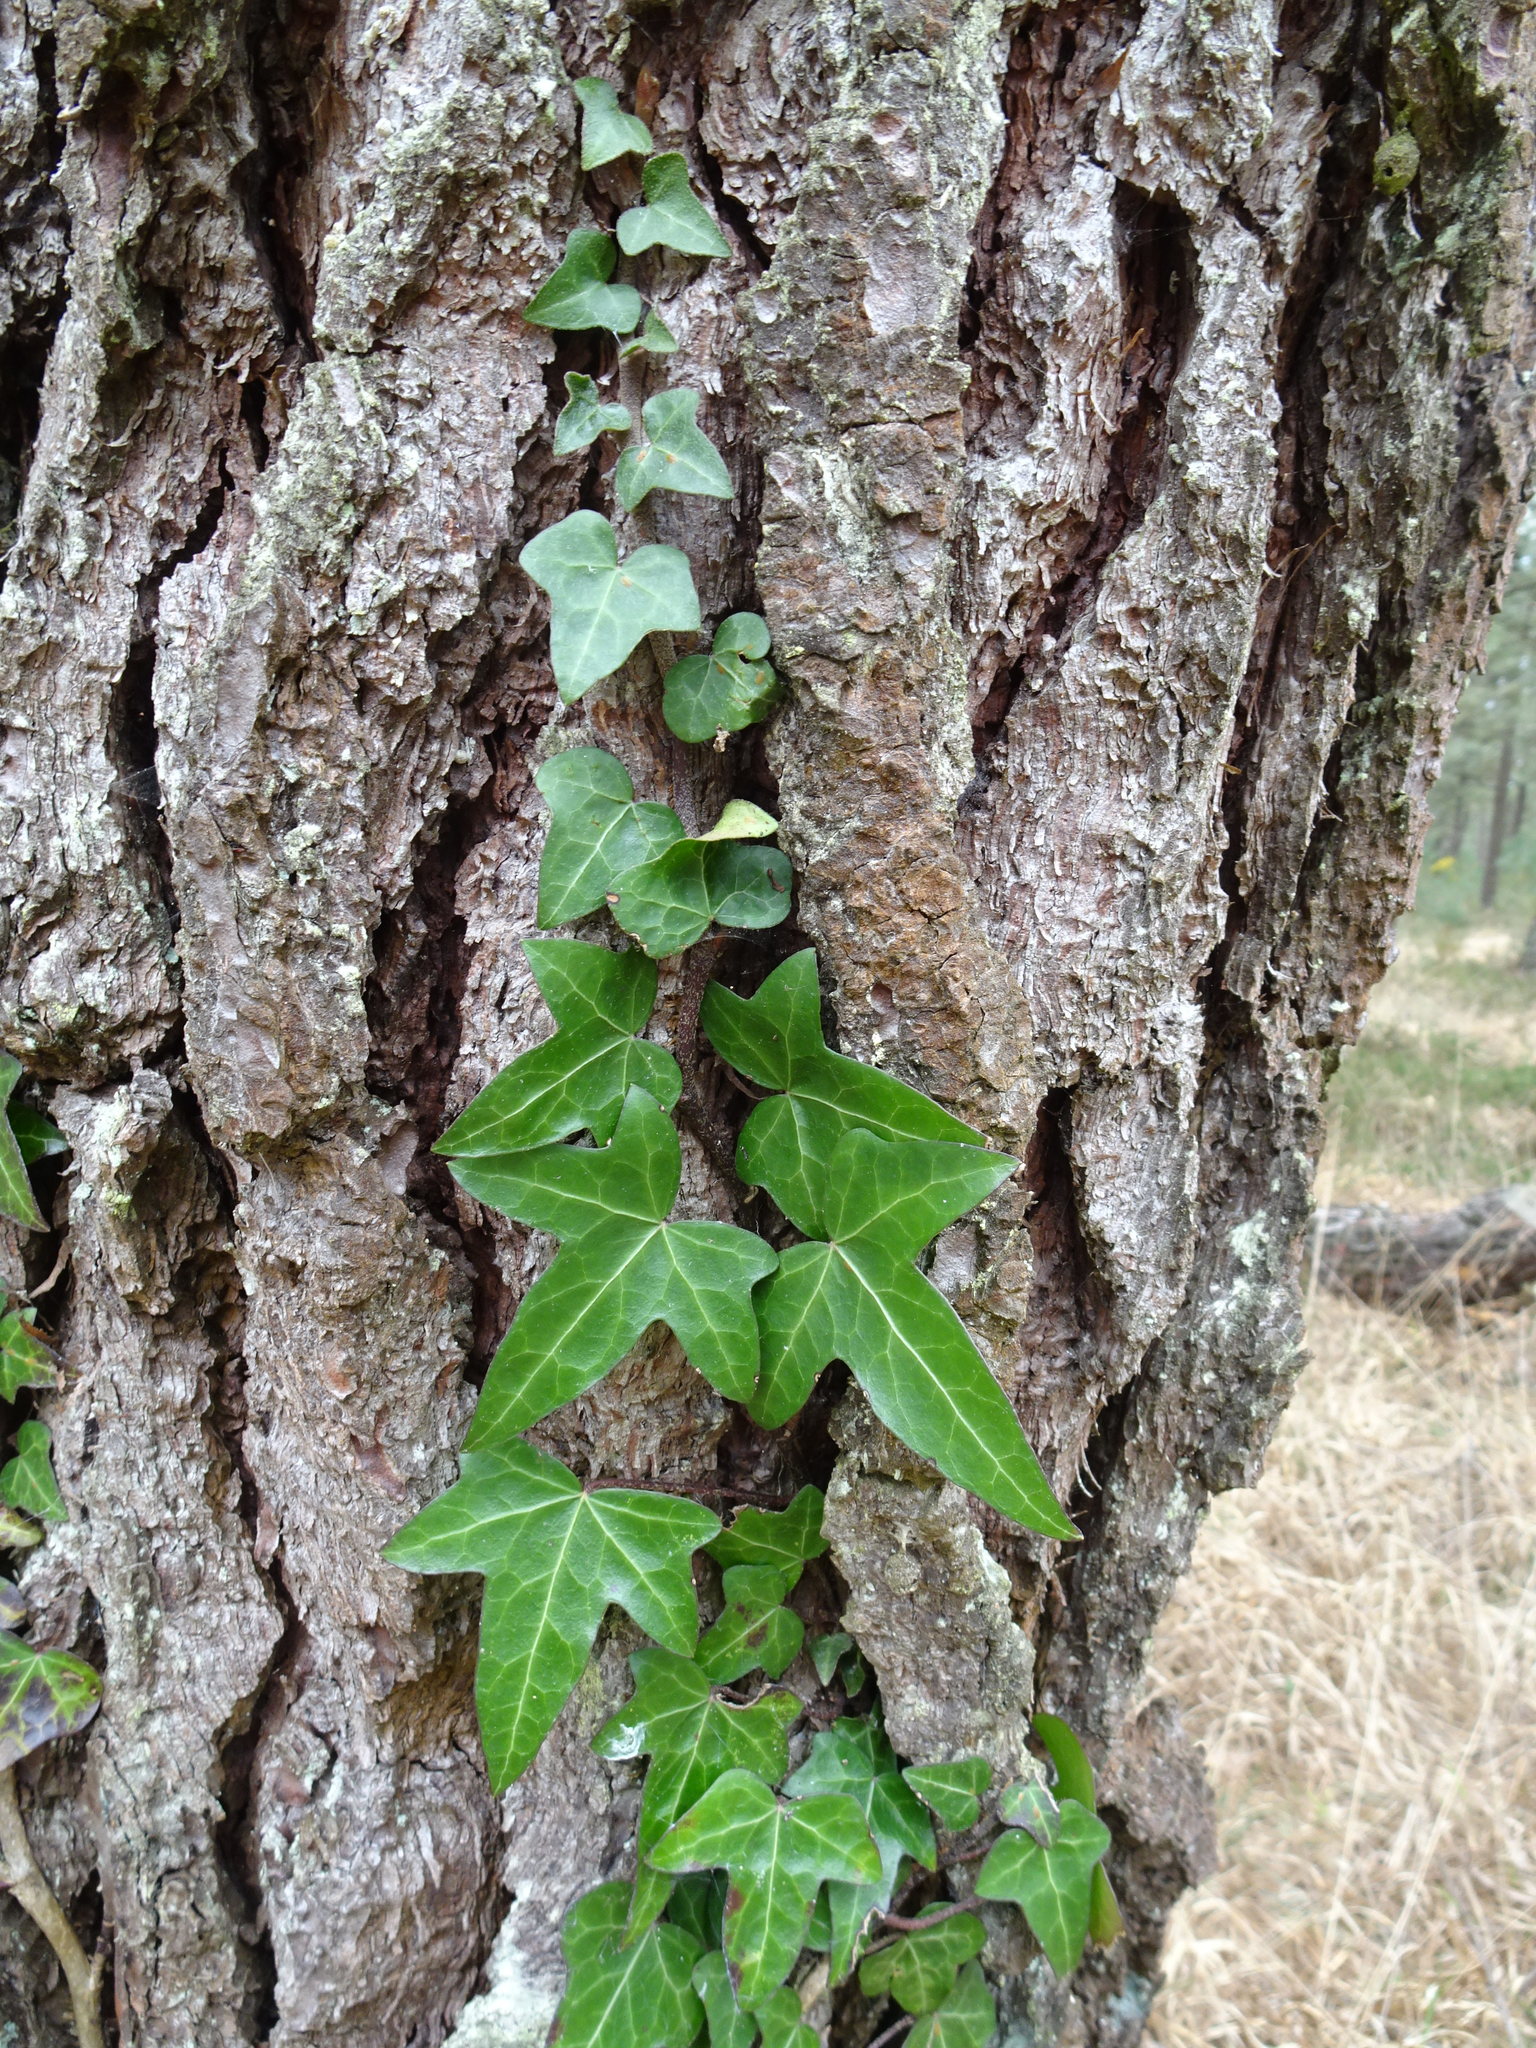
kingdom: Plantae
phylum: Tracheophyta
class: Magnoliopsida
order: Apiales
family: Araliaceae
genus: Hedera
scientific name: Hedera helix
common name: Ivy
